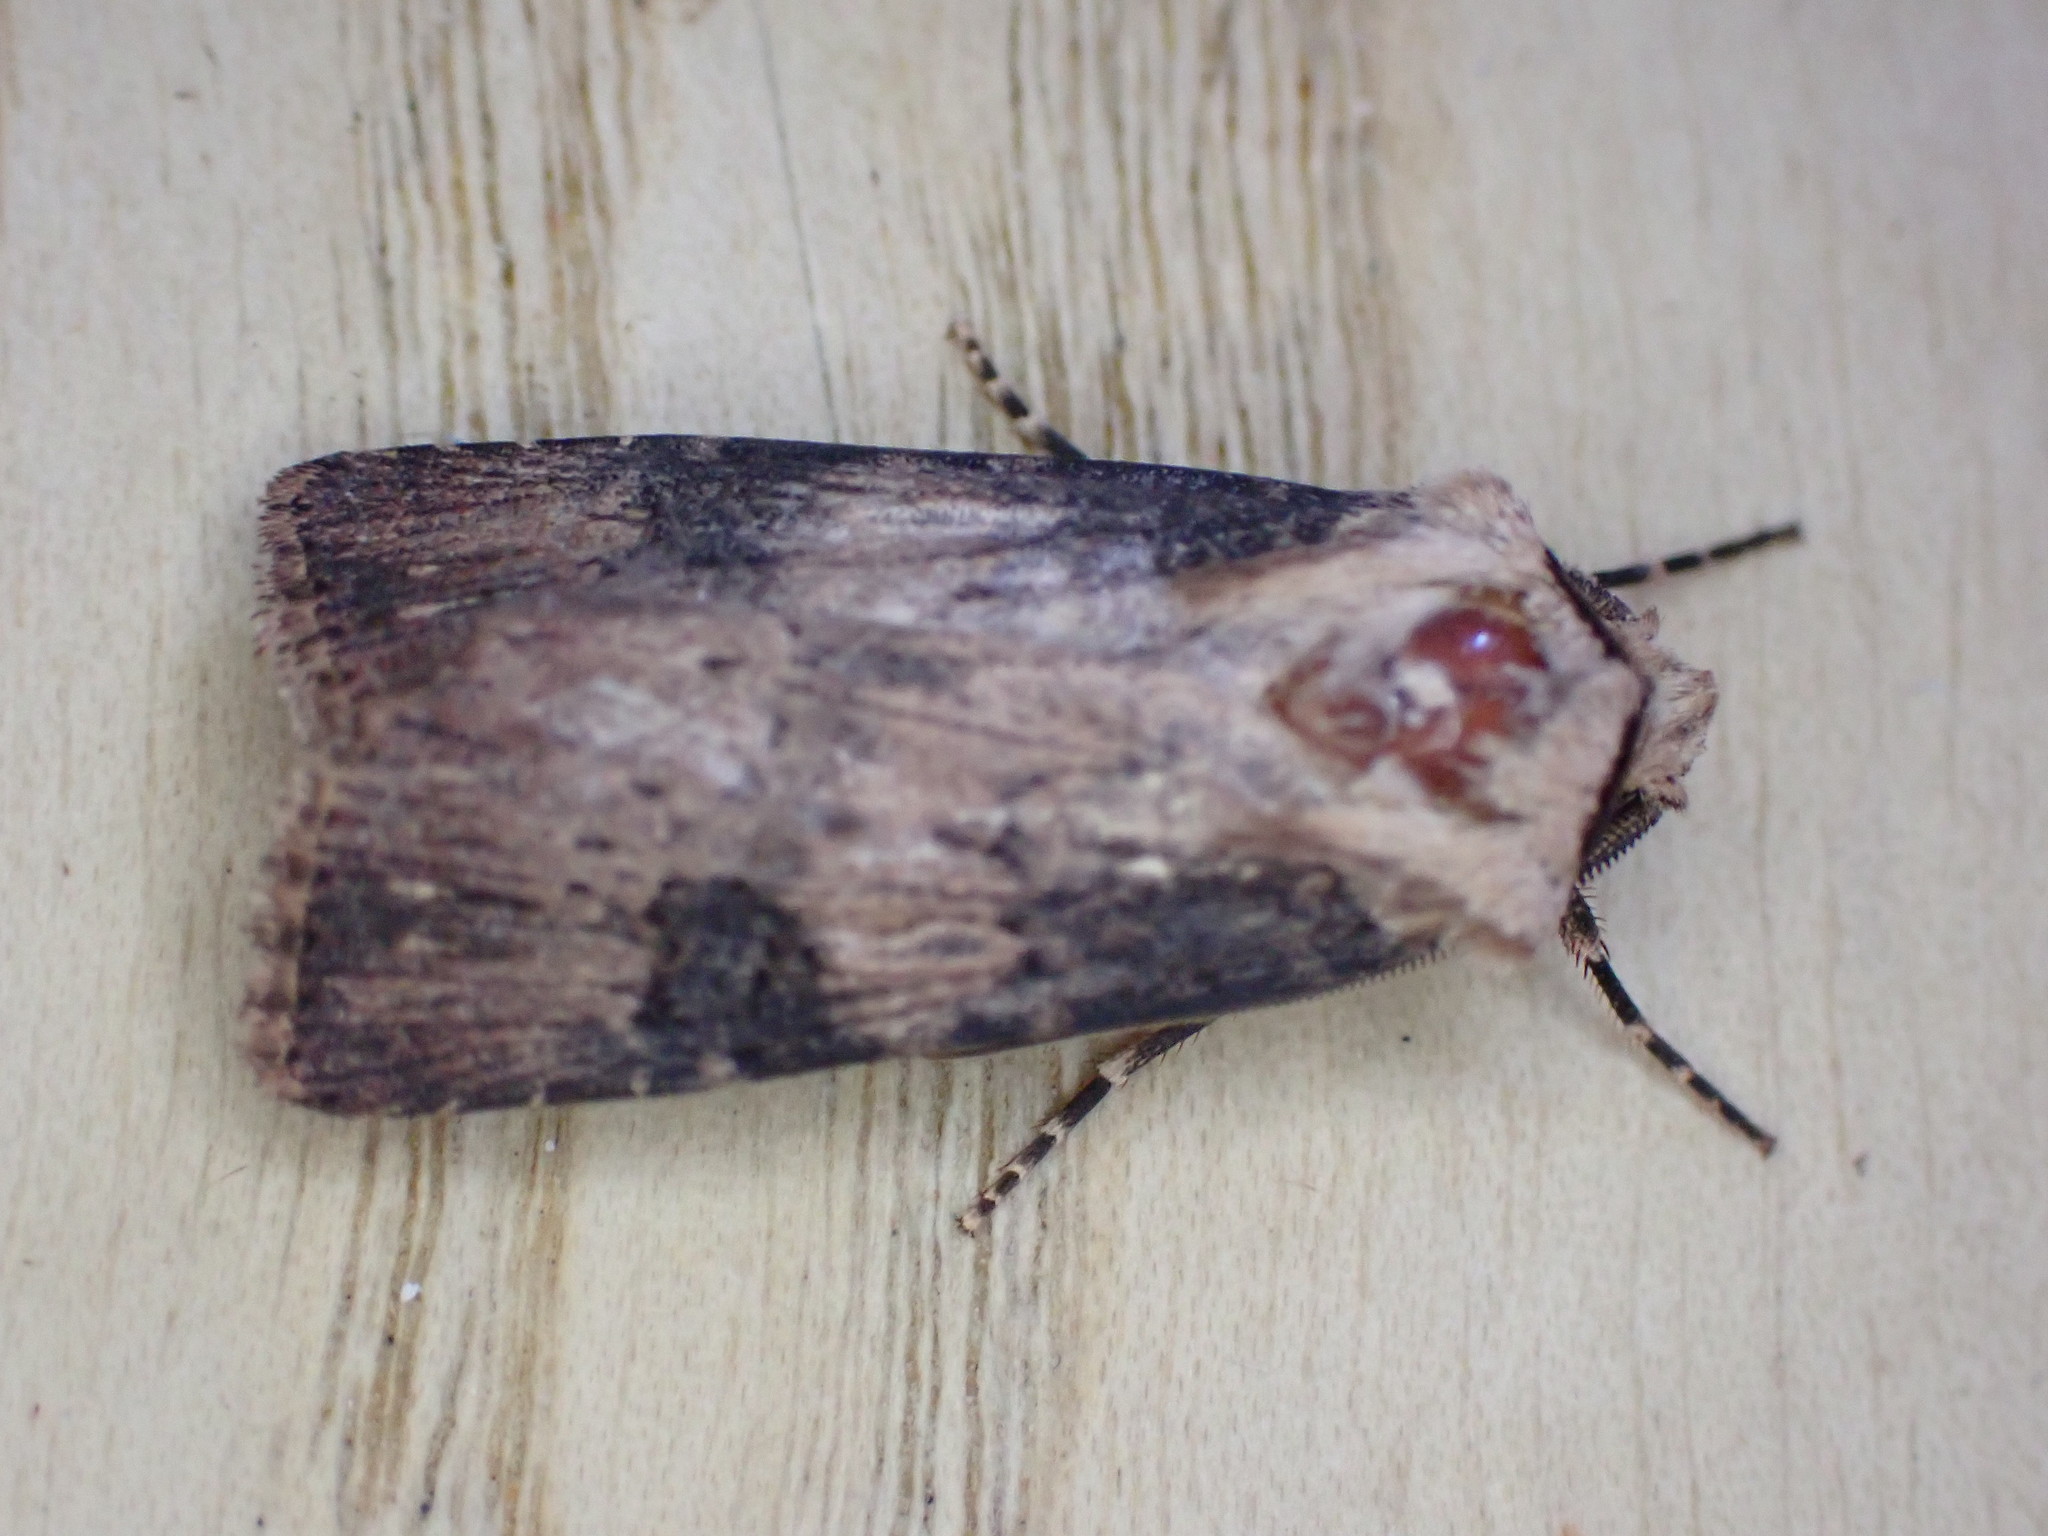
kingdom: Animalia
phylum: Arthropoda
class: Insecta
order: Lepidoptera
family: Noctuidae
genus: Agrotis
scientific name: Agrotis puta
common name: Shuttle-shaped dart
